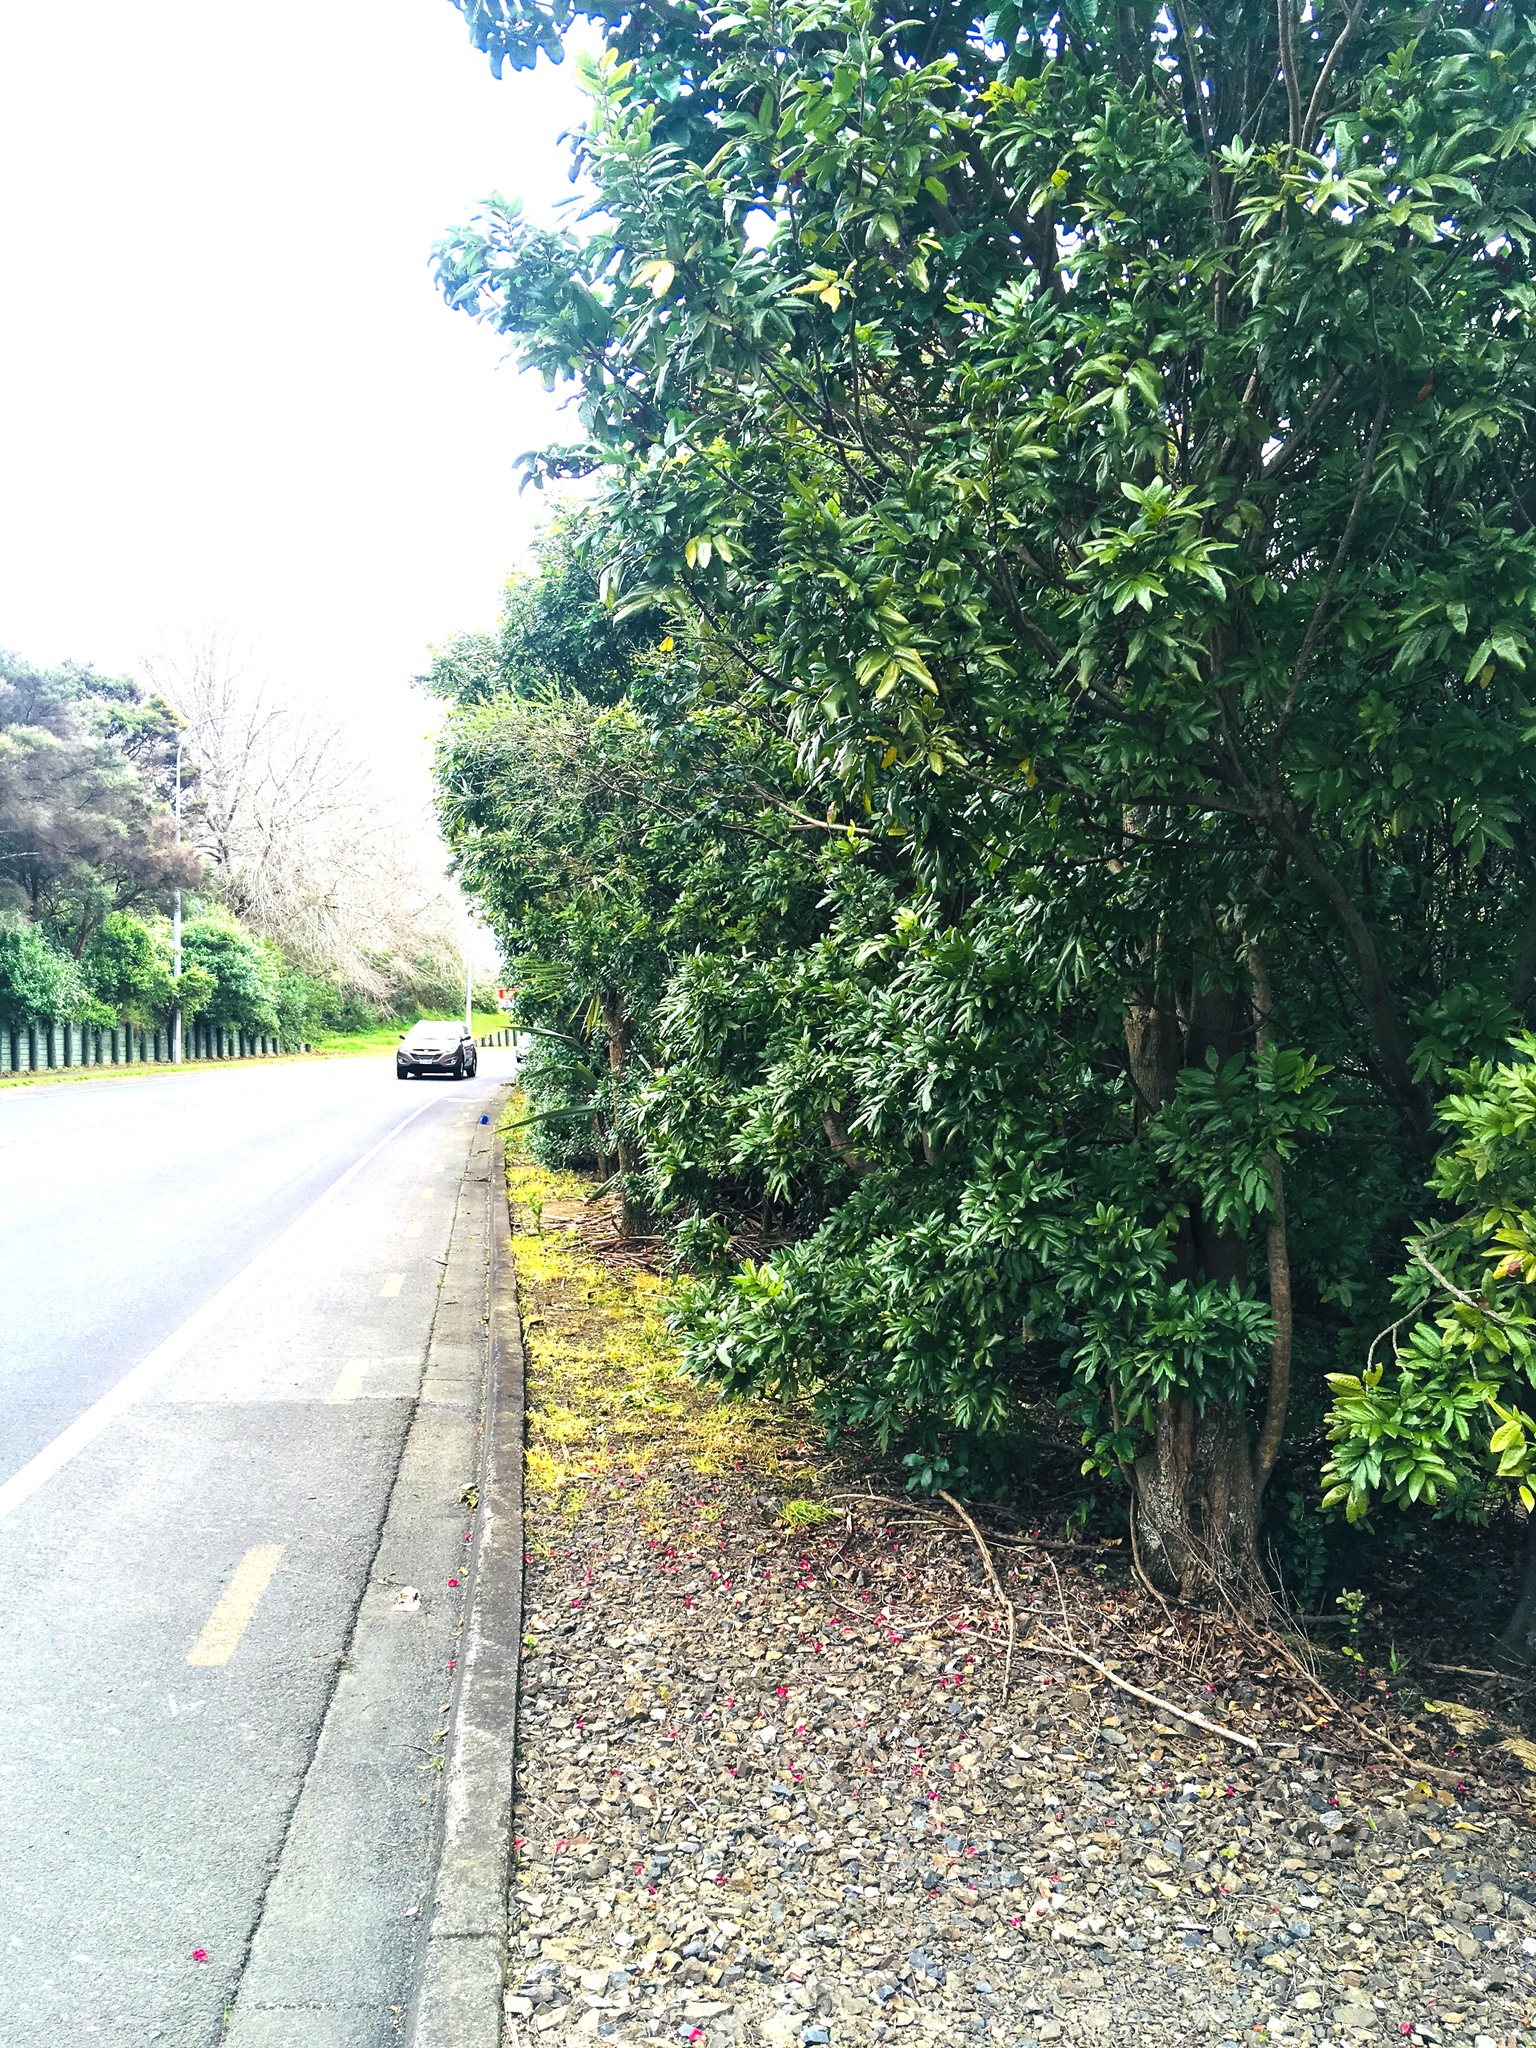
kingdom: Plantae
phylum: Tracheophyta
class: Magnoliopsida
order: Sapindales
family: Sapindaceae
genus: Alectryon
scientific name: Alectryon excelsus
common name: Three kings titoki
